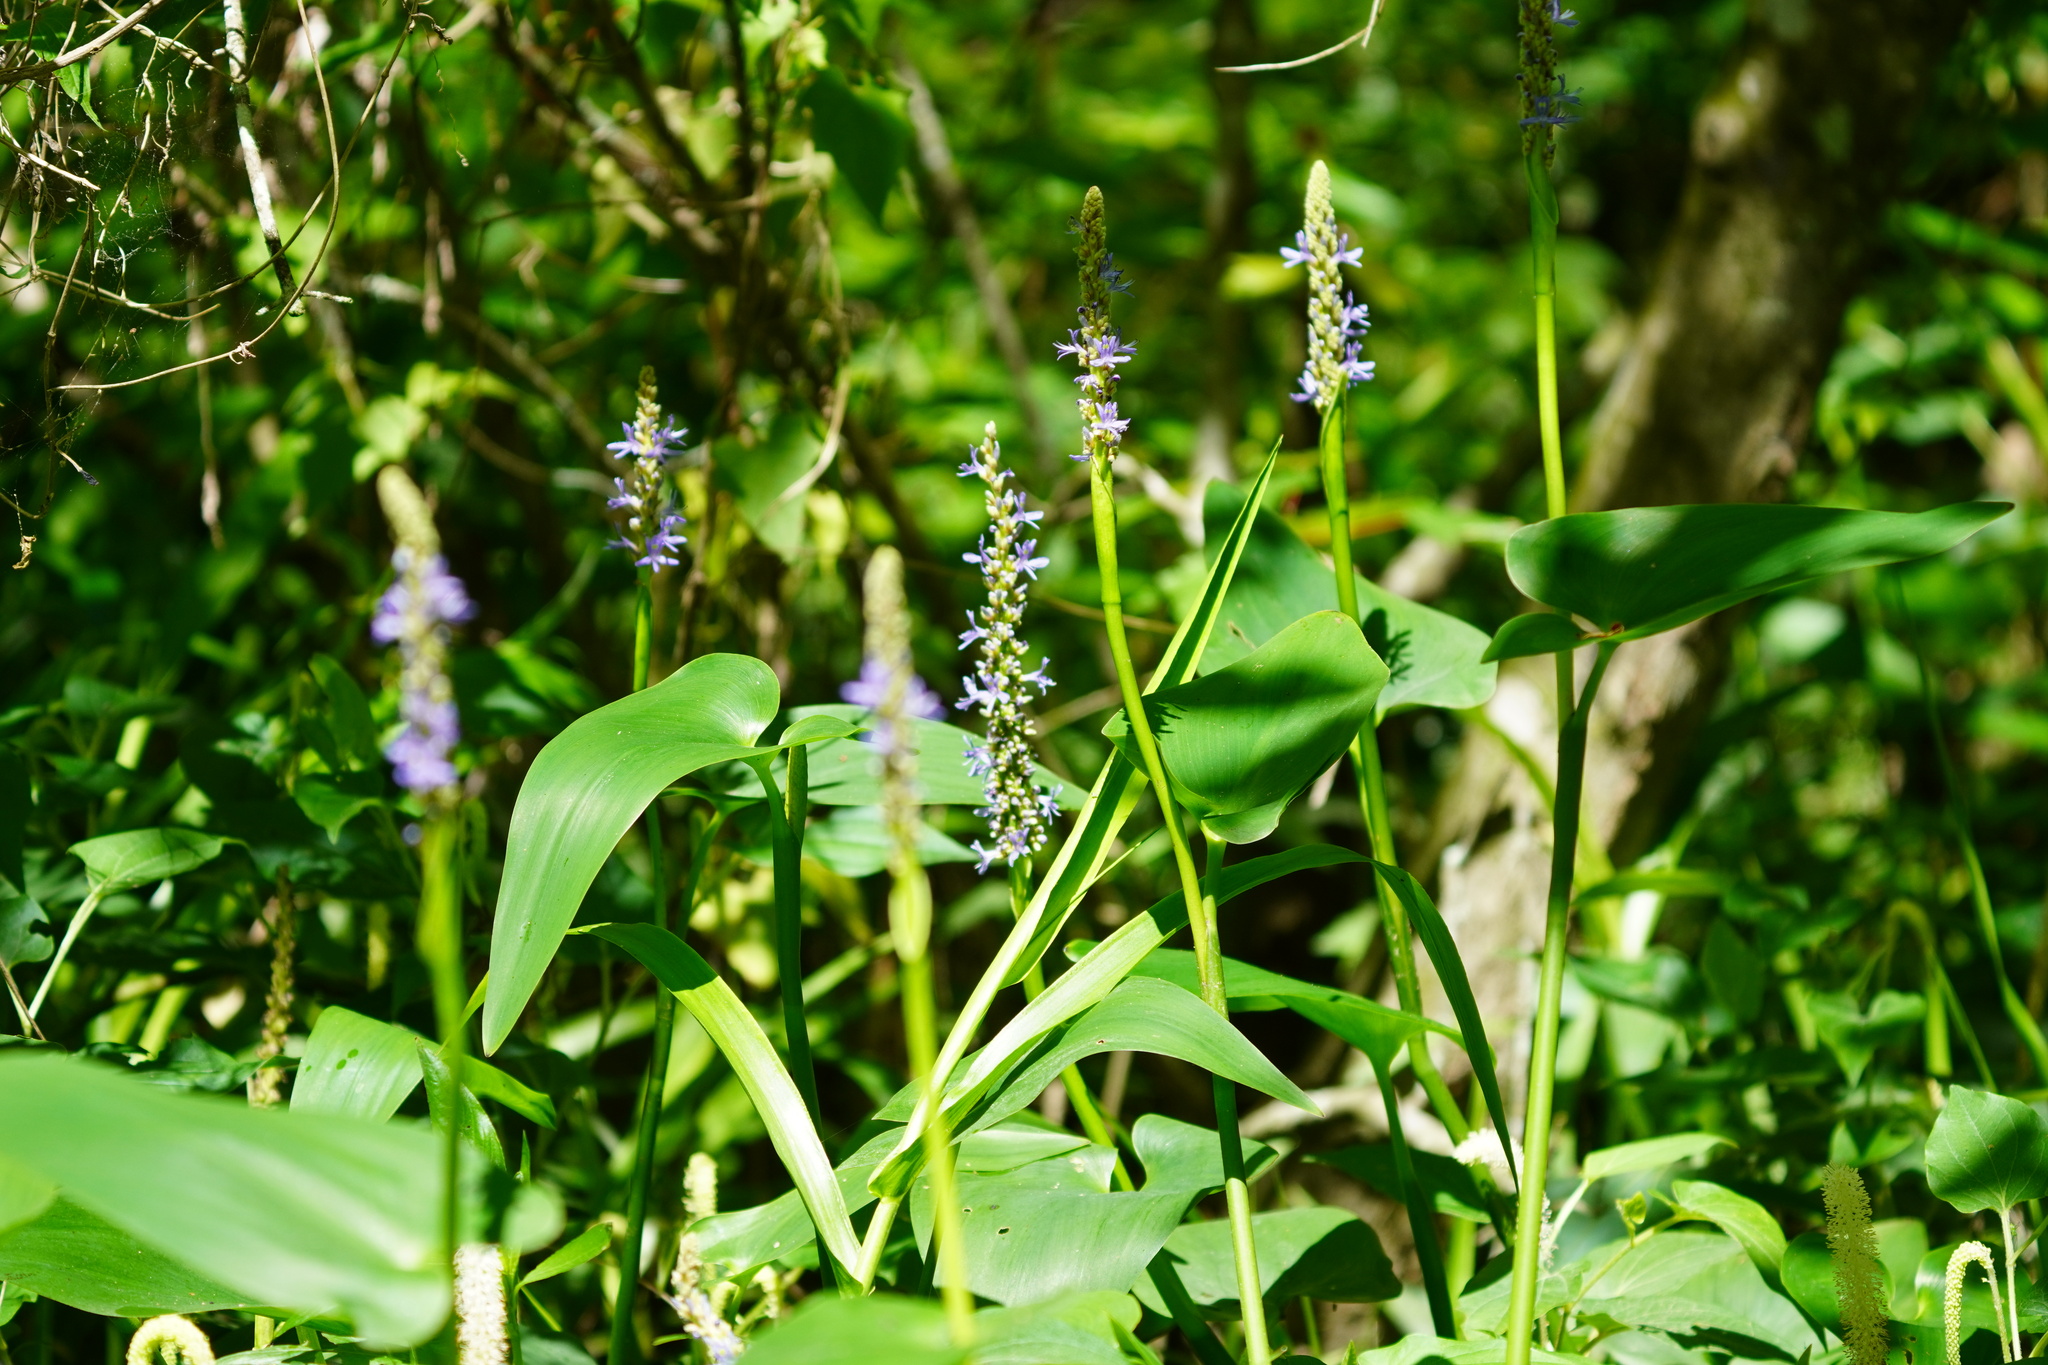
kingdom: Plantae
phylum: Tracheophyta
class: Liliopsida
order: Commelinales
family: Pontederiaceae
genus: Pontederia
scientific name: Pontederia cordata
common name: Pickerelweed
